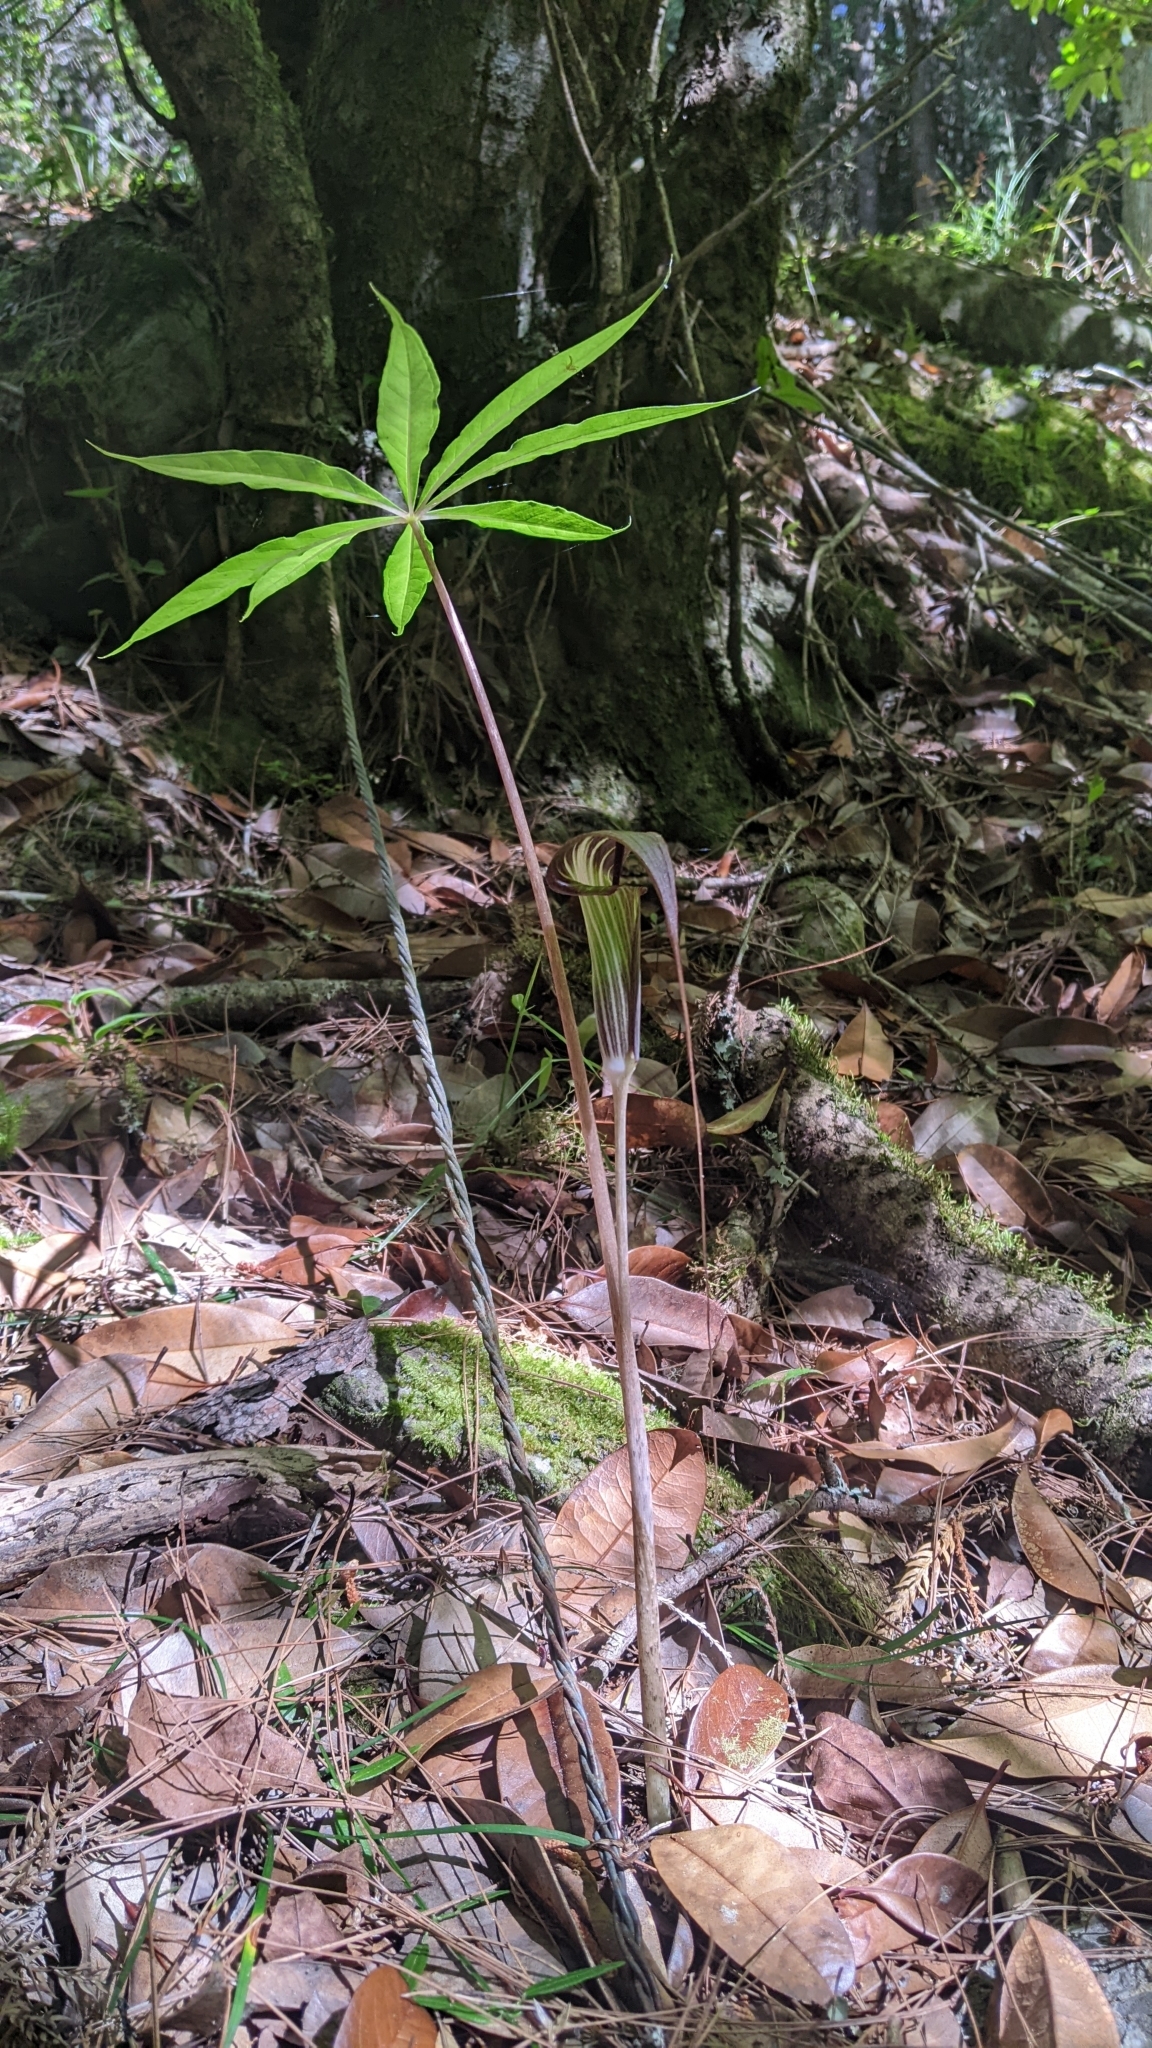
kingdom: Plantae
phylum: Tracheophyta
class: Liliopsida
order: Alismatales
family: Araceae
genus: Arisaema
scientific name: Arisaema consanguineum
